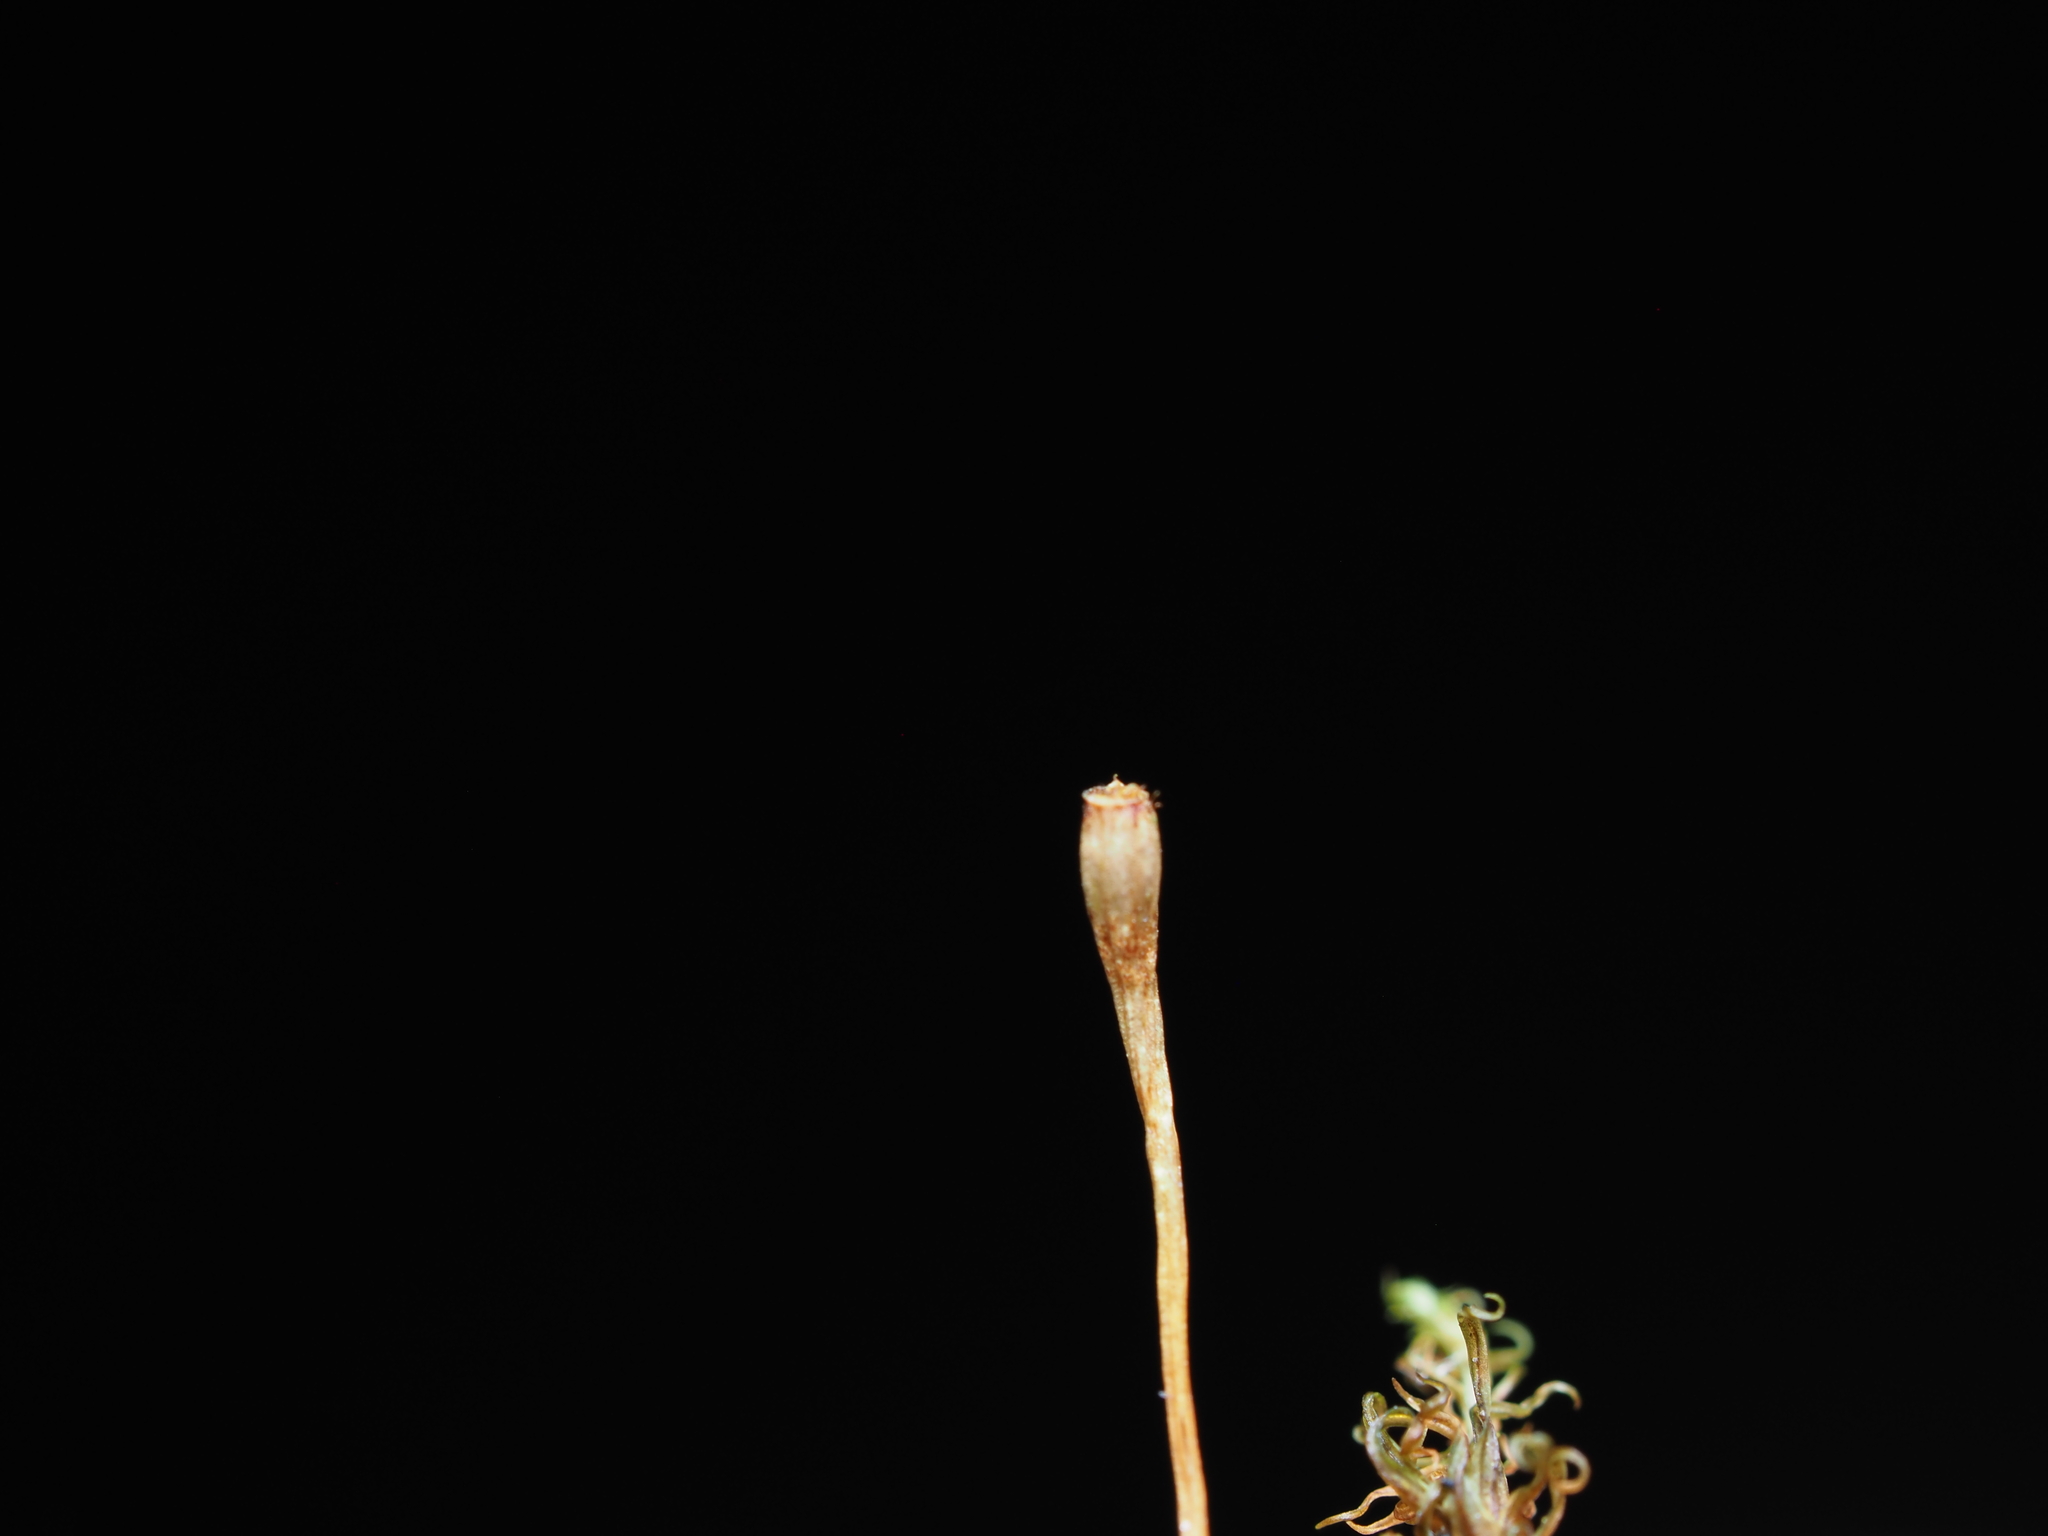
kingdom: Plantae
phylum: Bryophyta
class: Bryopsida
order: Orthotrichales
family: Orthotrichaceae
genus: Ulota
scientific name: Ulota obtusiuscula
